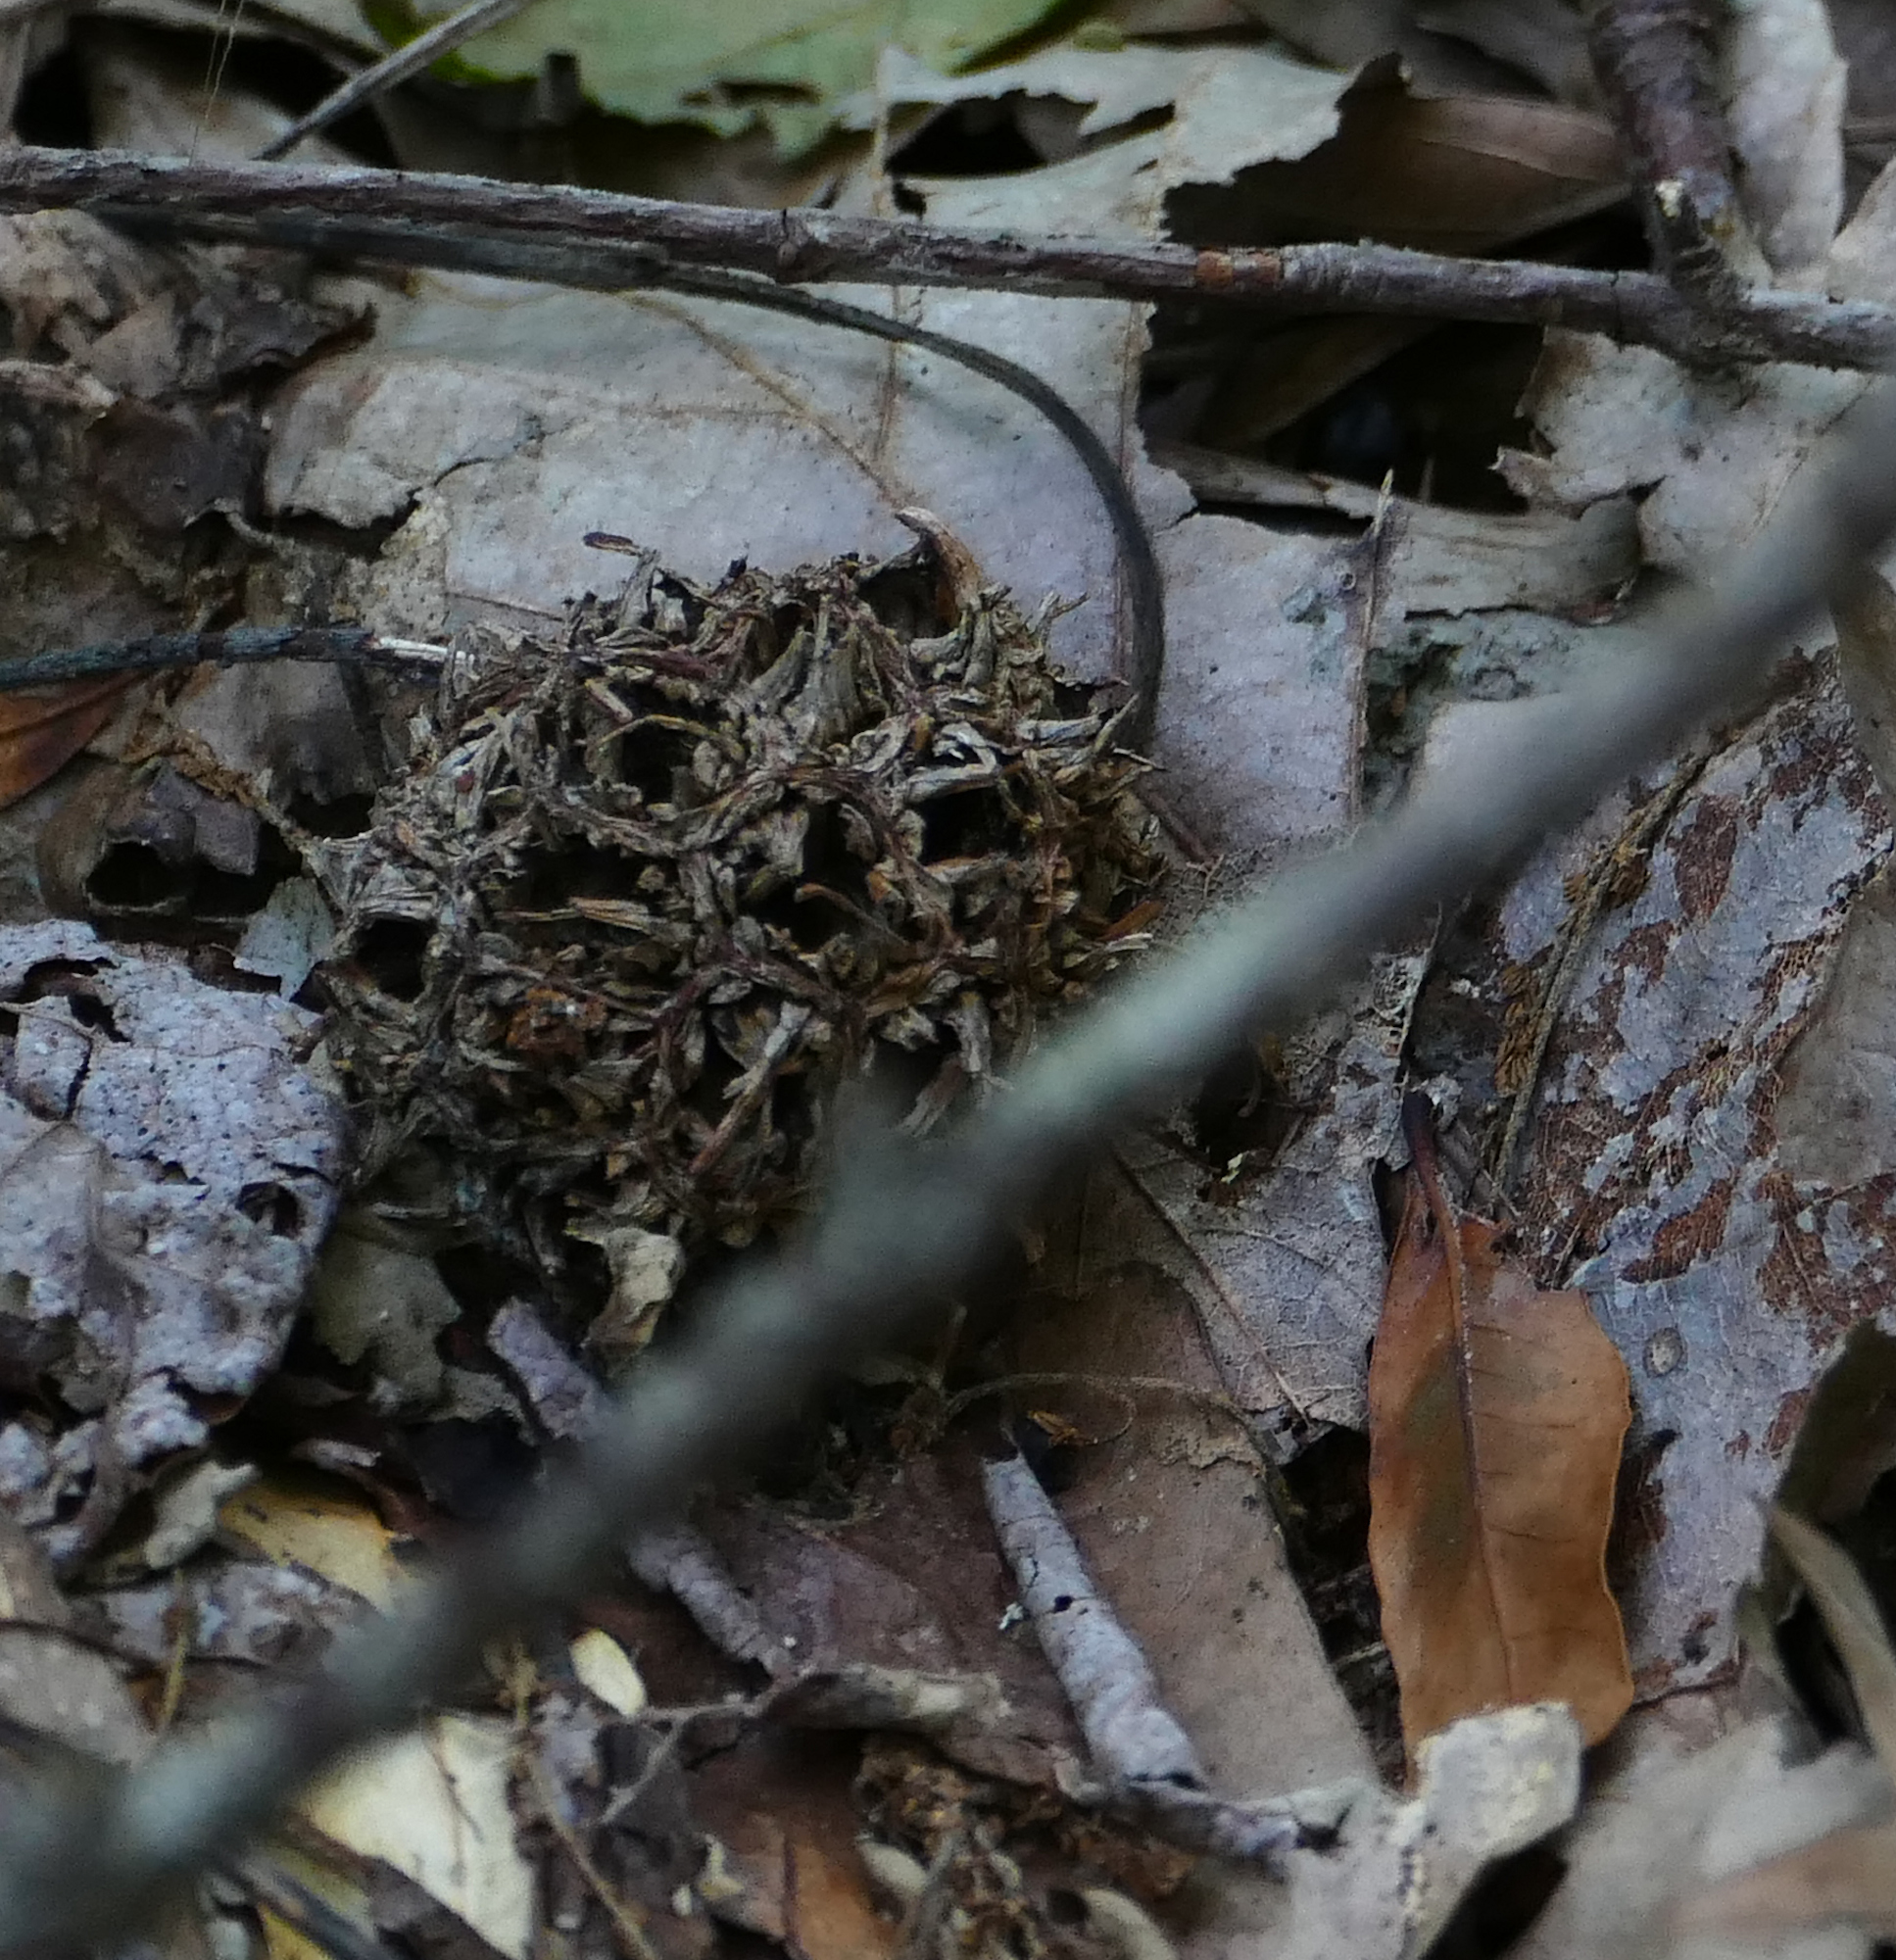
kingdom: Plantae
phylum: Tracheophyta
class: Magnoliopsida
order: Saxifragales
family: Altingiaceae
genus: Liquidambar
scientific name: Liquidambar styraciflua
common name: Sweet gum
